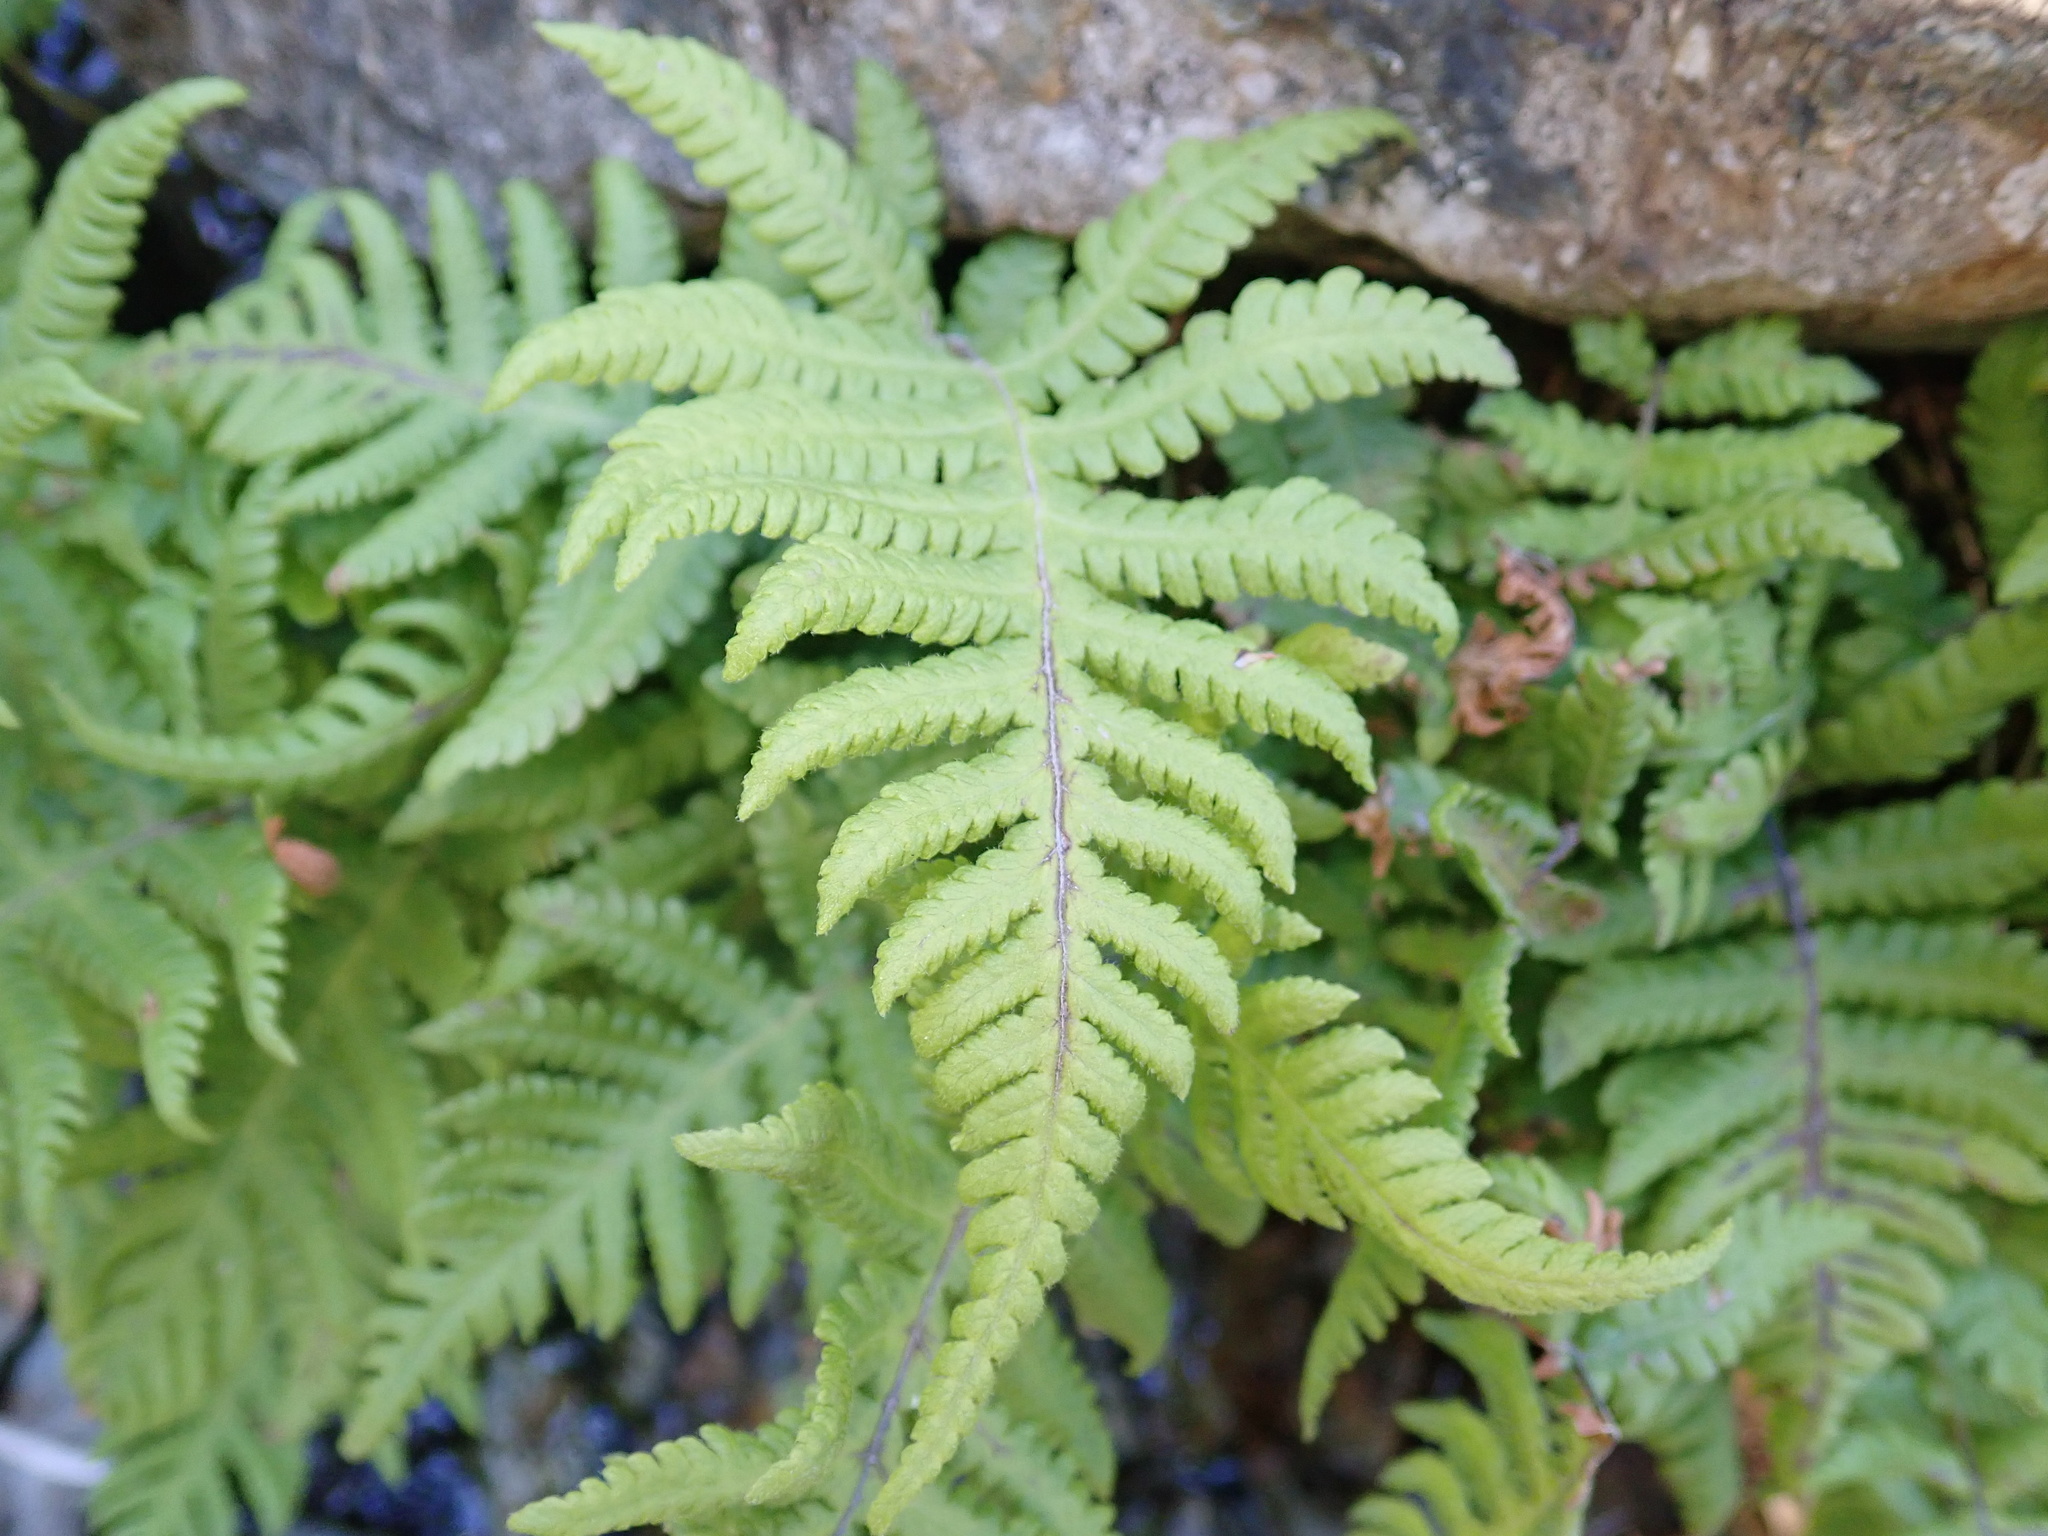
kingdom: Plantae
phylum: Tracheophyta
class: Polypodiopsida
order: Polypodiales
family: Thelypteridaceae
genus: Phegopteris
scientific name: Phegopteris connectilis
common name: Beech fern
